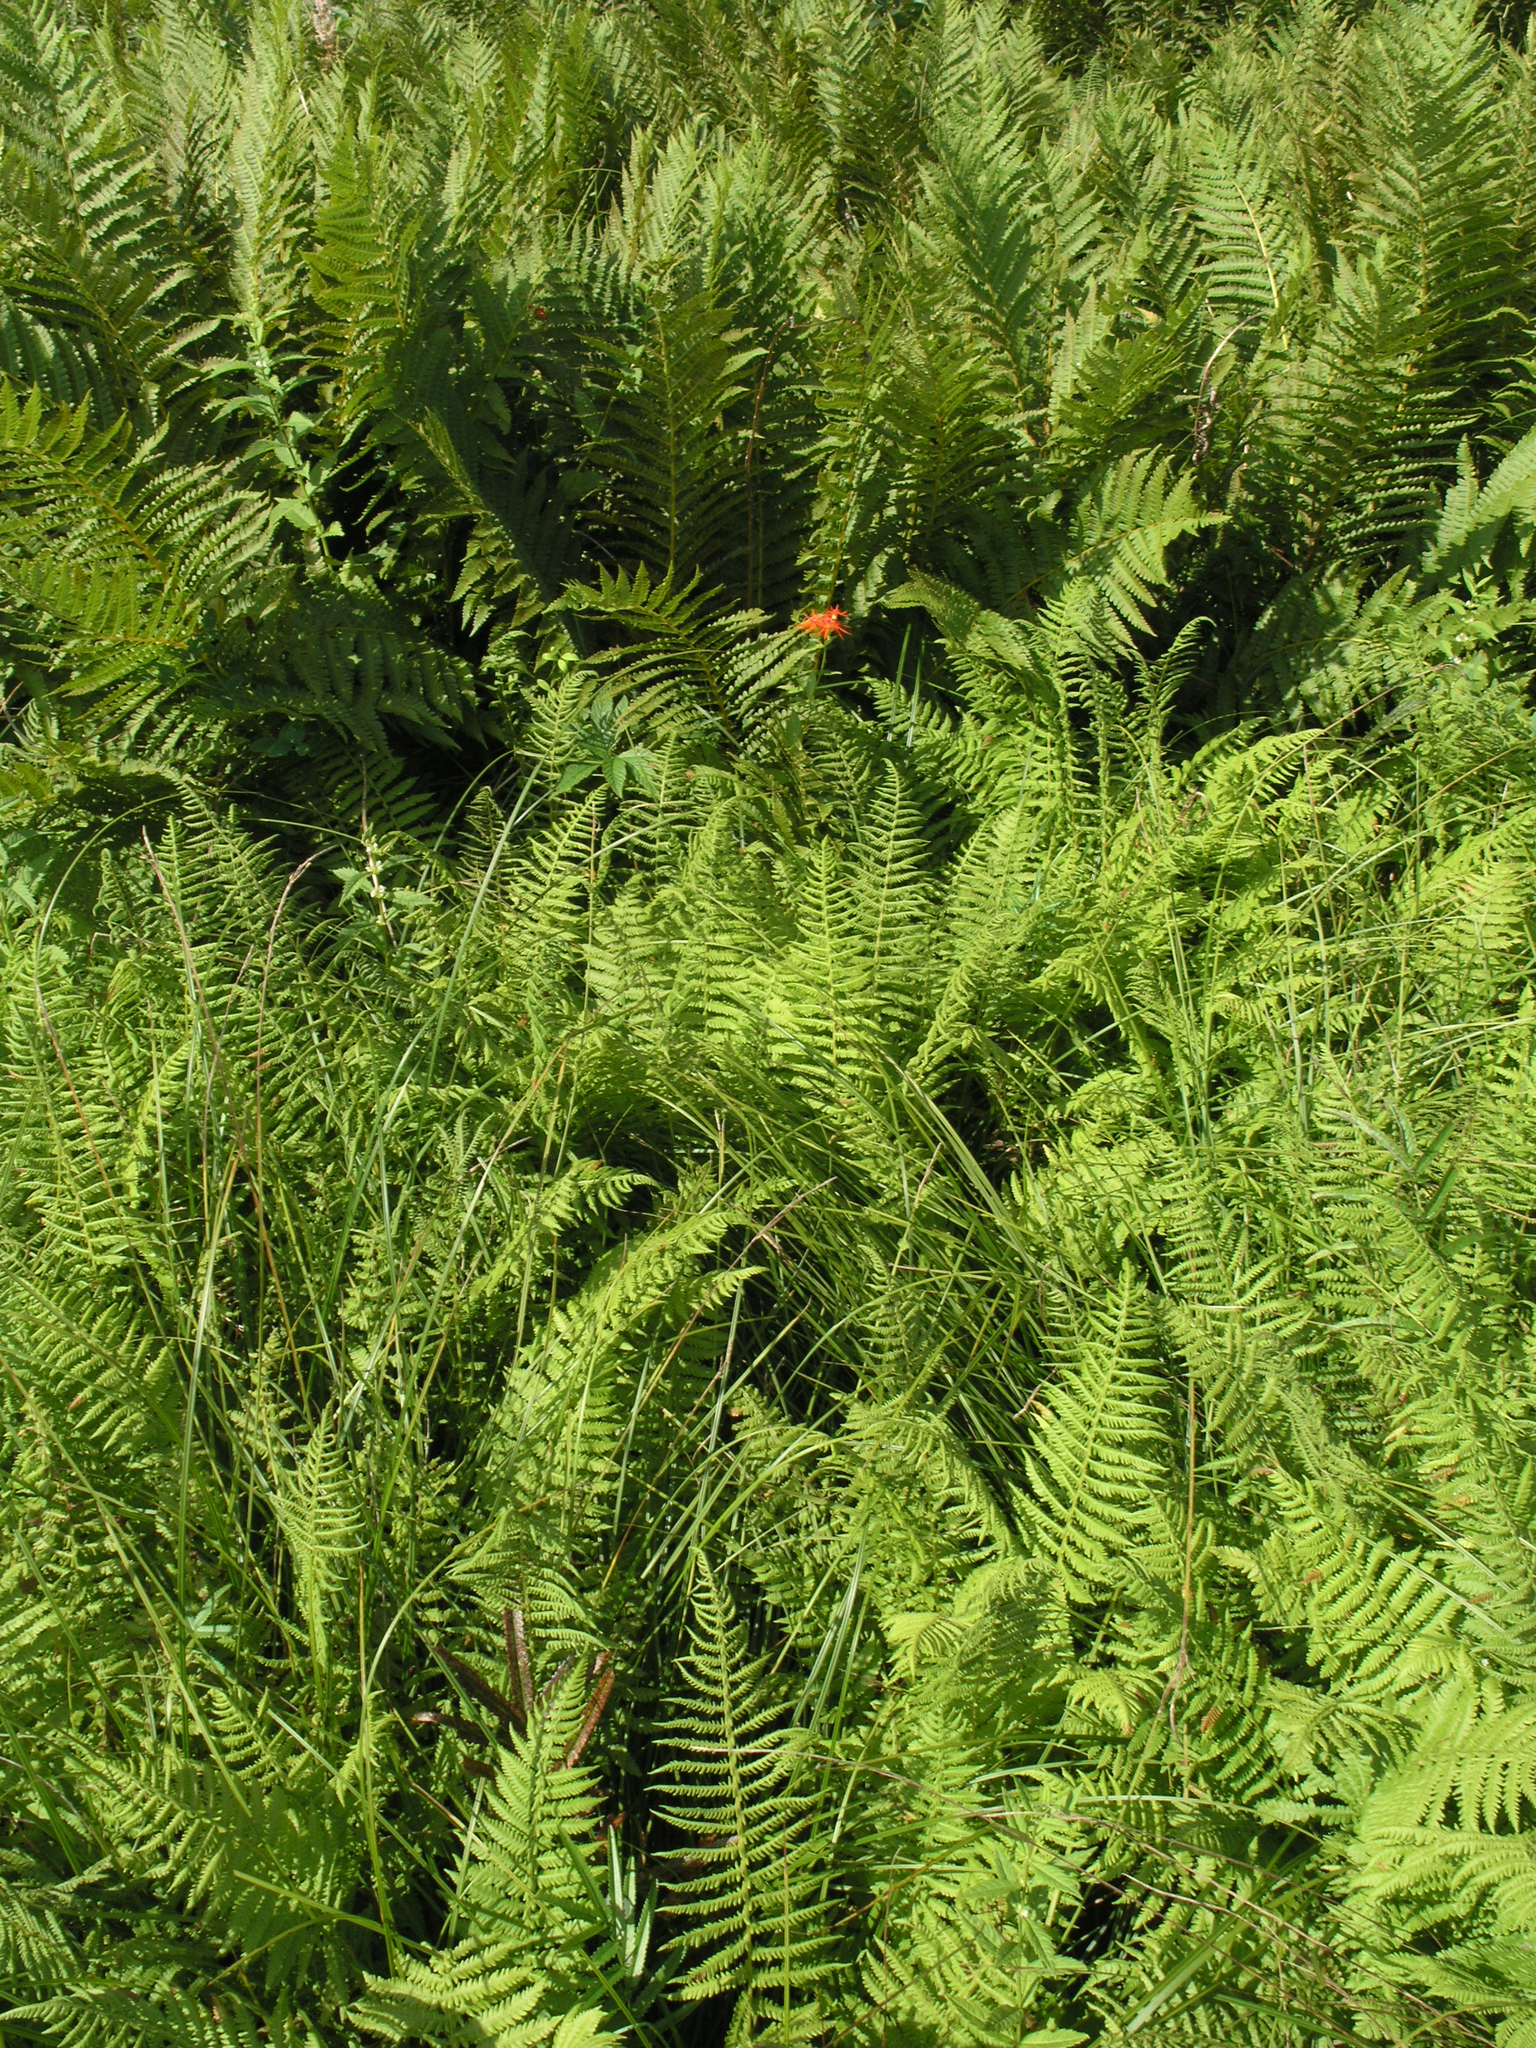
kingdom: Plantae
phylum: Tracheophyta
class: Polypodiopsida
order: Polypodiales
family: Thelypteridaceae
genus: Thelypteris
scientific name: Thelypteris palustris
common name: Marsh fern
